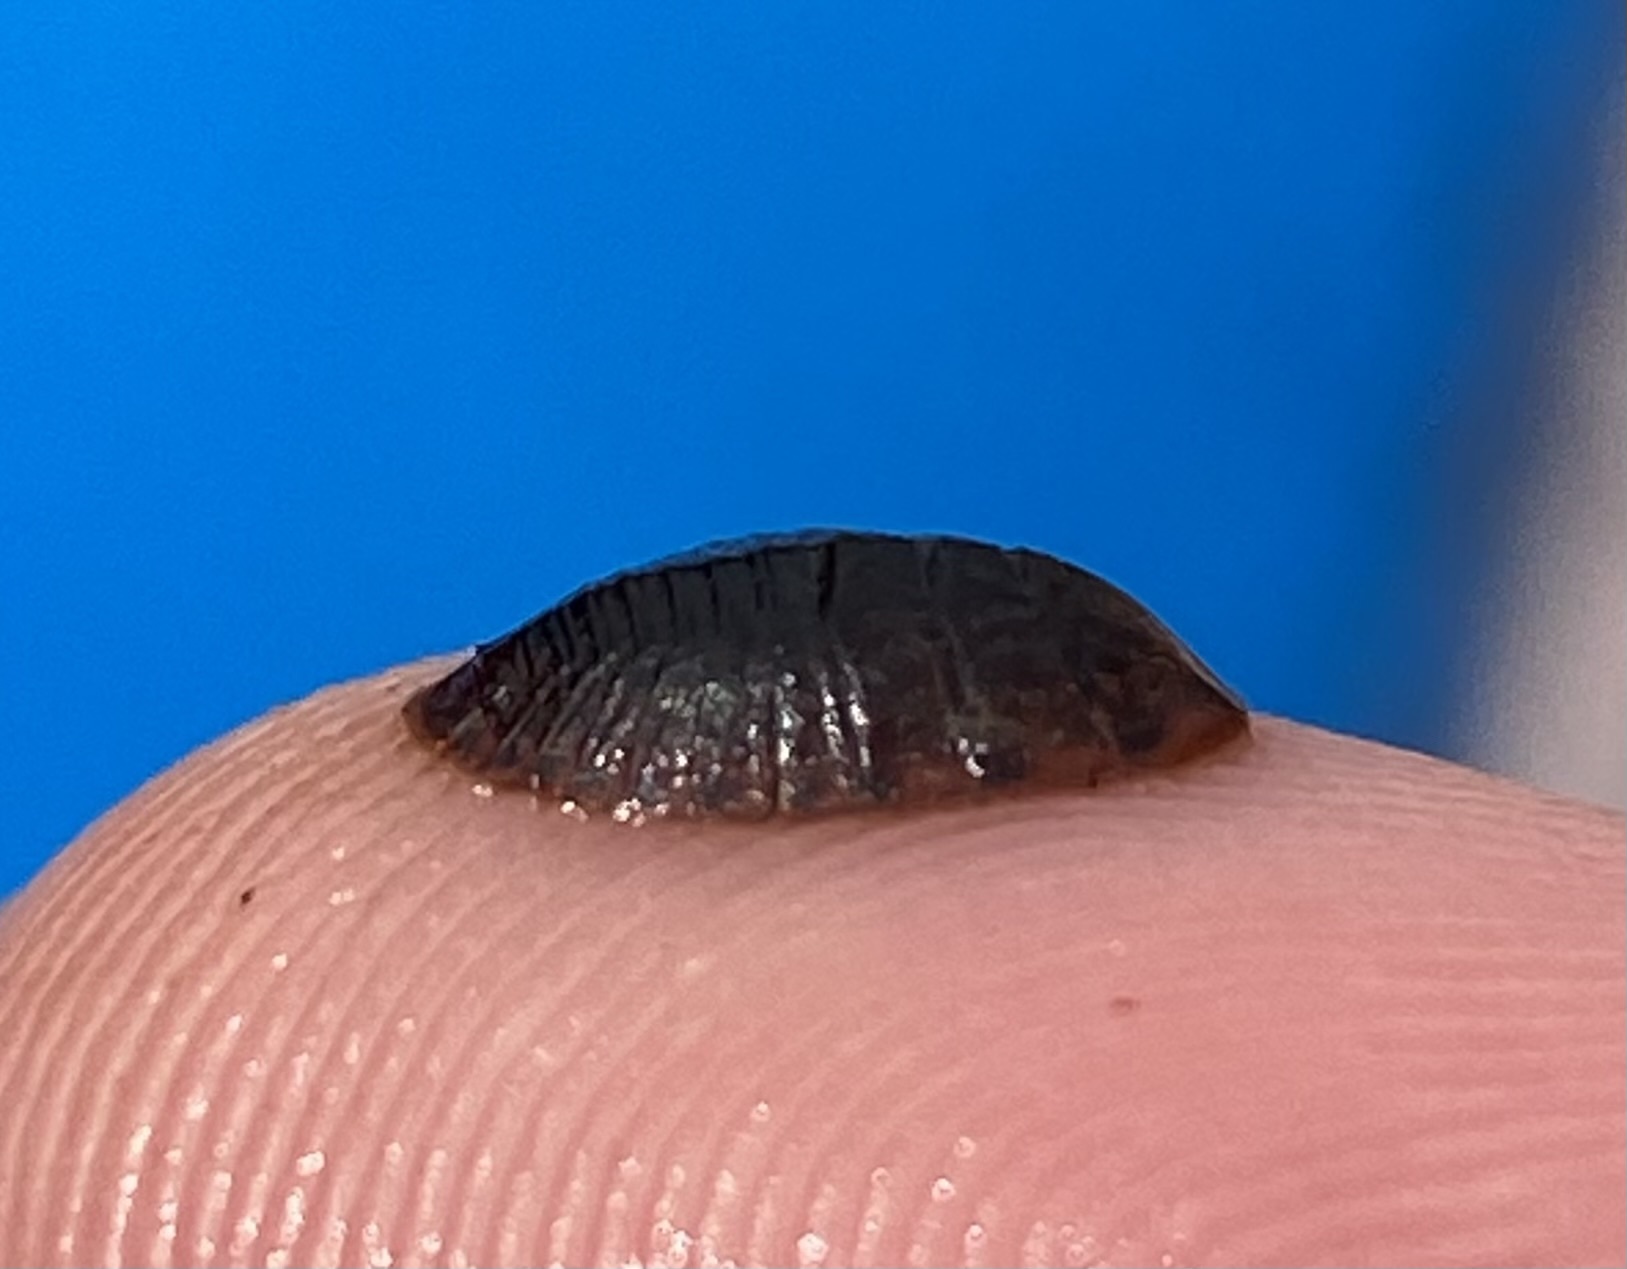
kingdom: Animalia
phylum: Arthropoda
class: Insecta
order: Coleoptera
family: Psephenidae
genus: Psephenus
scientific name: Psephenus herricki
